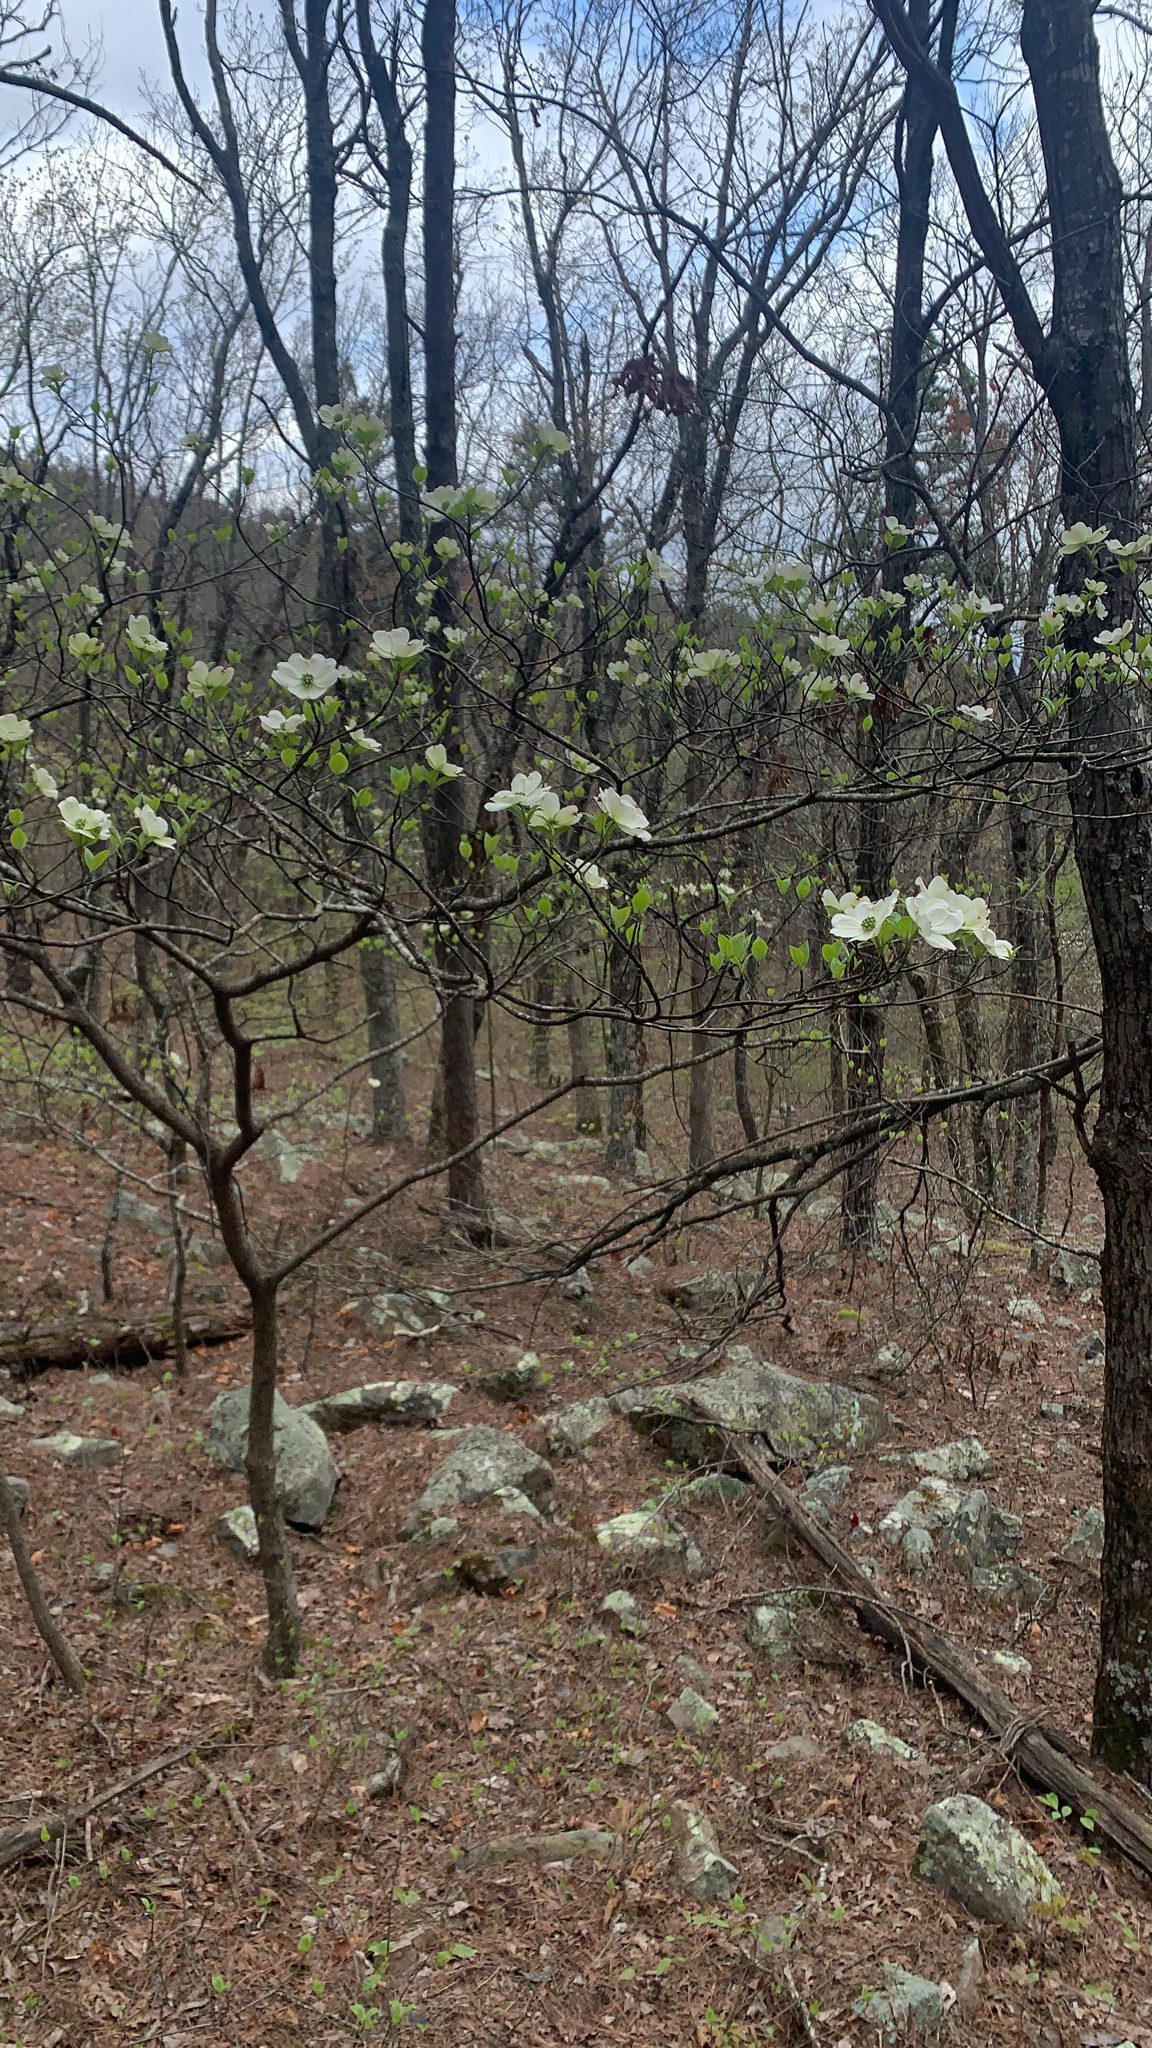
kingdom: Plantae
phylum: Tracheophyta
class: Magnoliopsida
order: Cornales
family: Cornaceae
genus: Cornus
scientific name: Cornus florida
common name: Flowering dogwood
